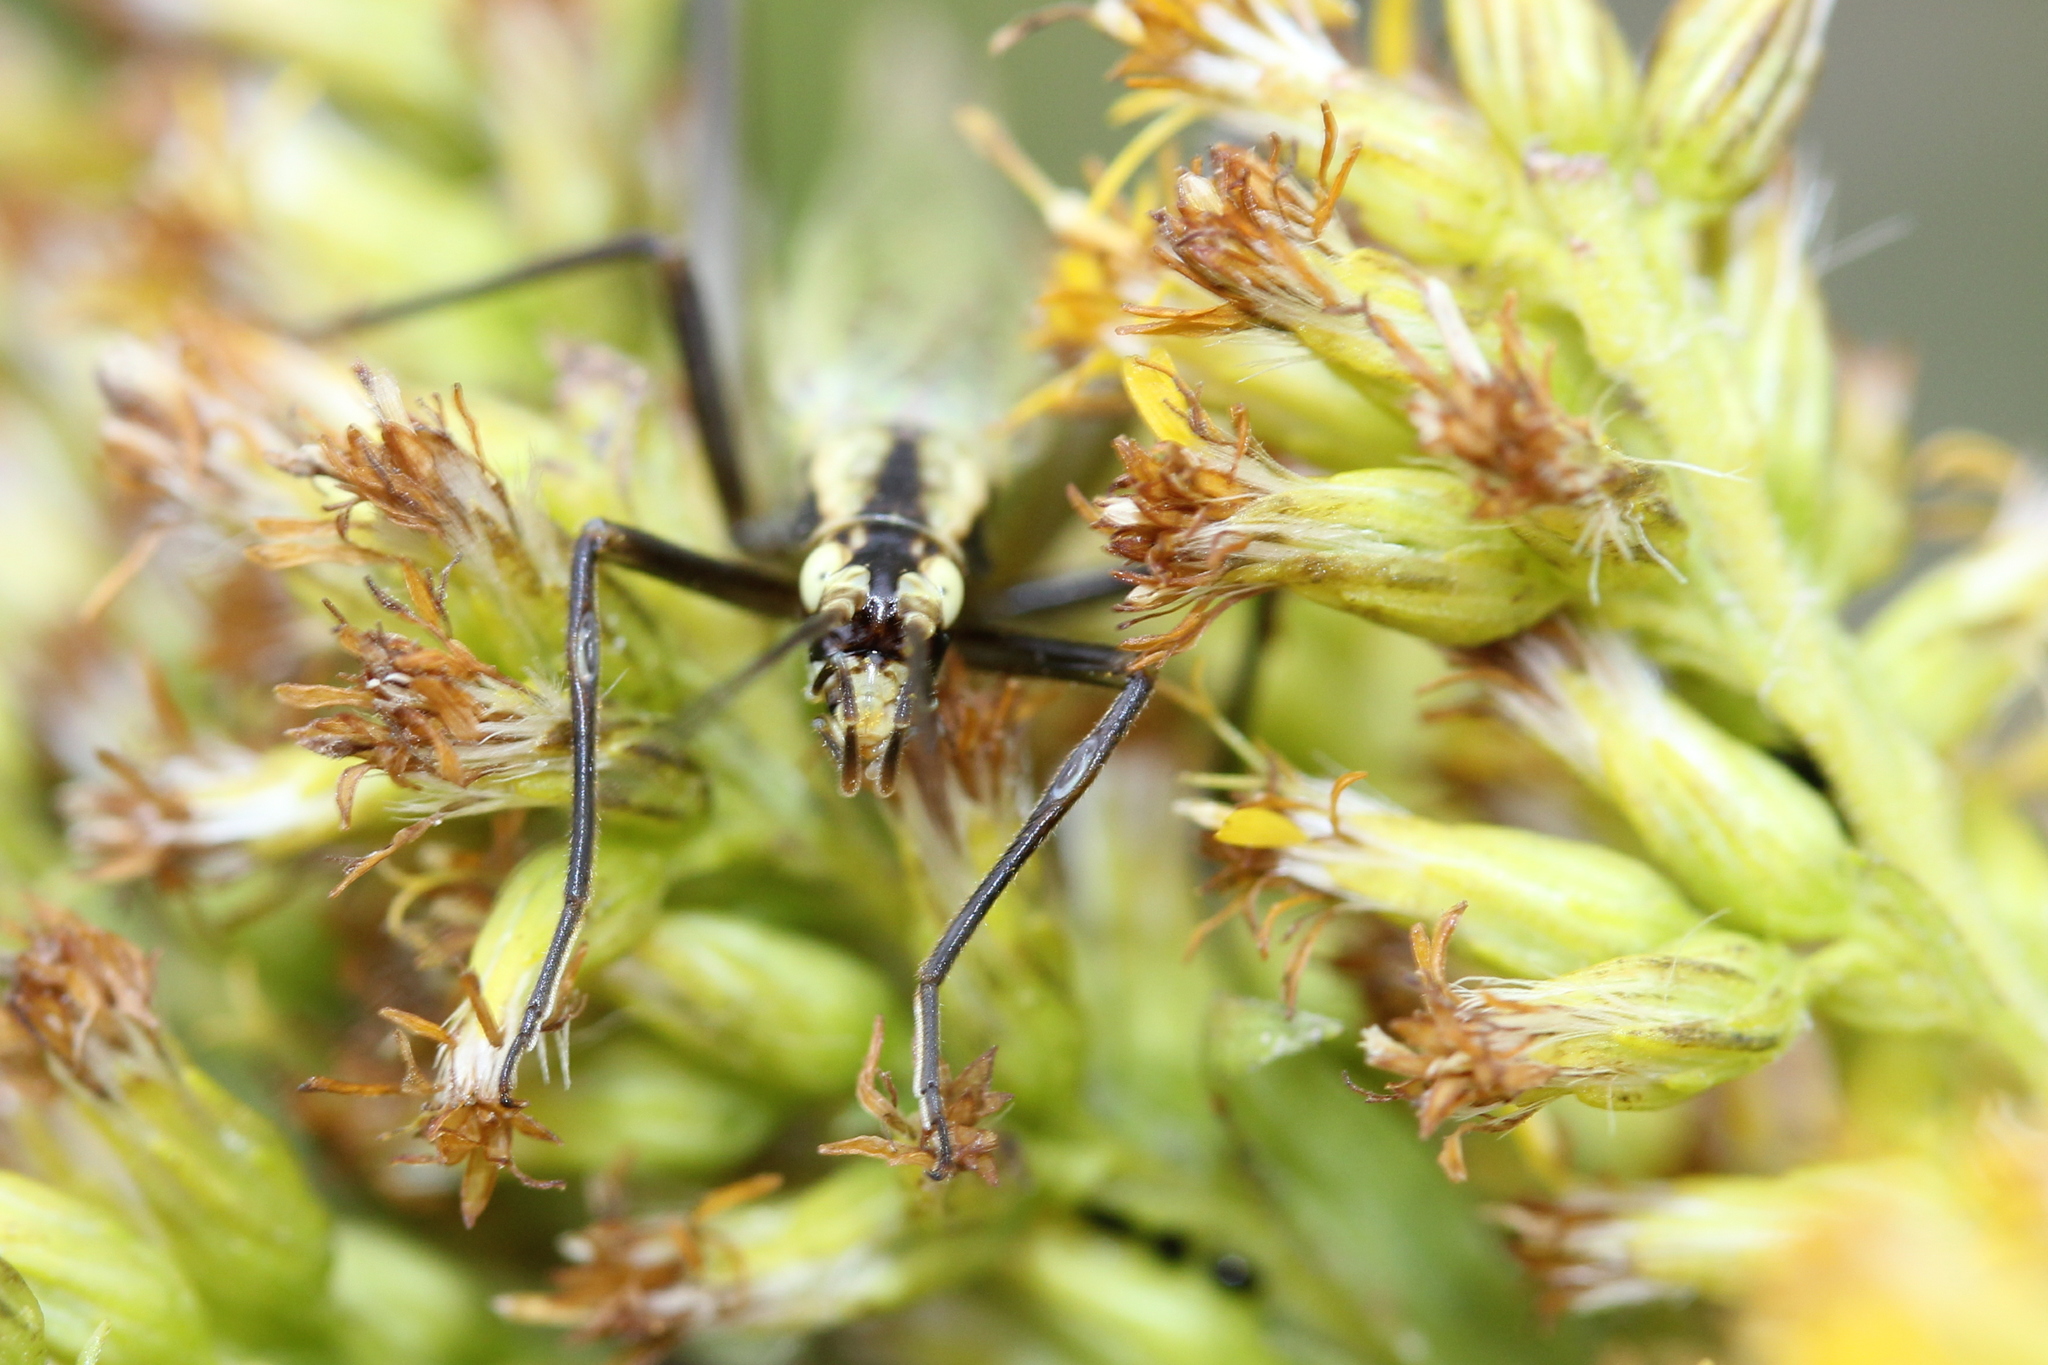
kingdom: Animalia
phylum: Arthropoda
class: Insecta
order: Orthoptera
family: Gryllidae
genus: Oecanthus
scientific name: Oecanthus forbesi
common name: Forbes’s tree cricket
